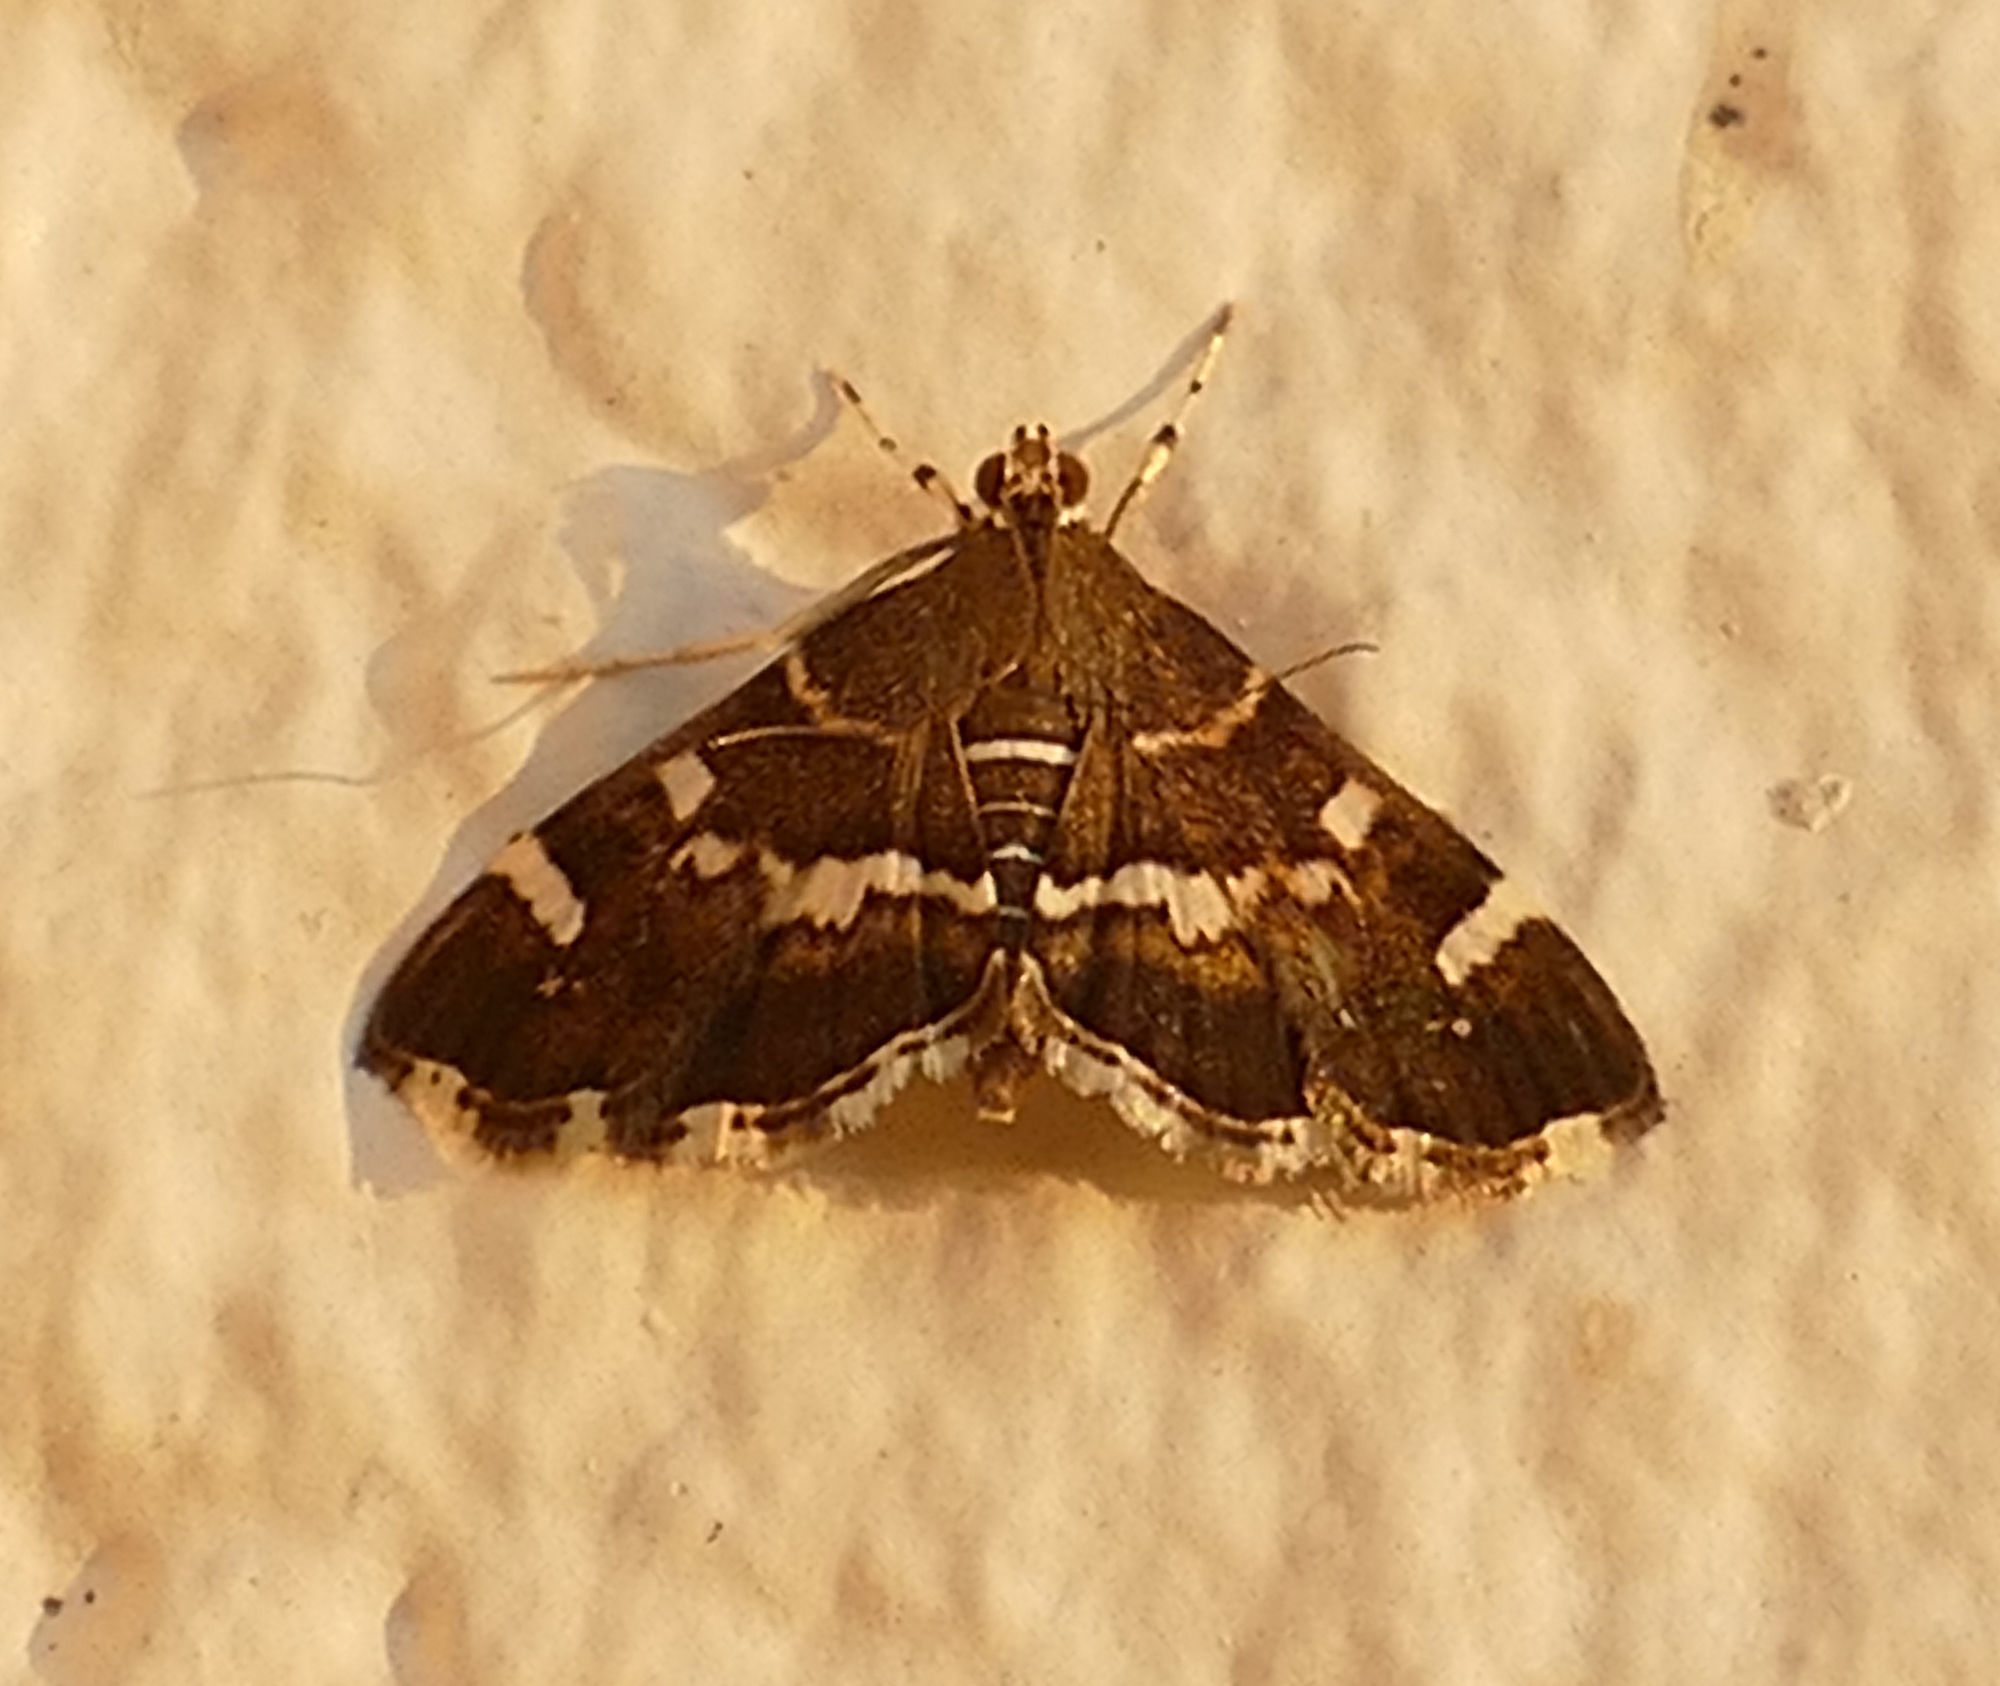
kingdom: Animalia
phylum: Arthropoda
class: Insecta
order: Lepidoptera
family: Crambidae
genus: Hymenia
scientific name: Hymenia perspectalis
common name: Spotted beet webworm
